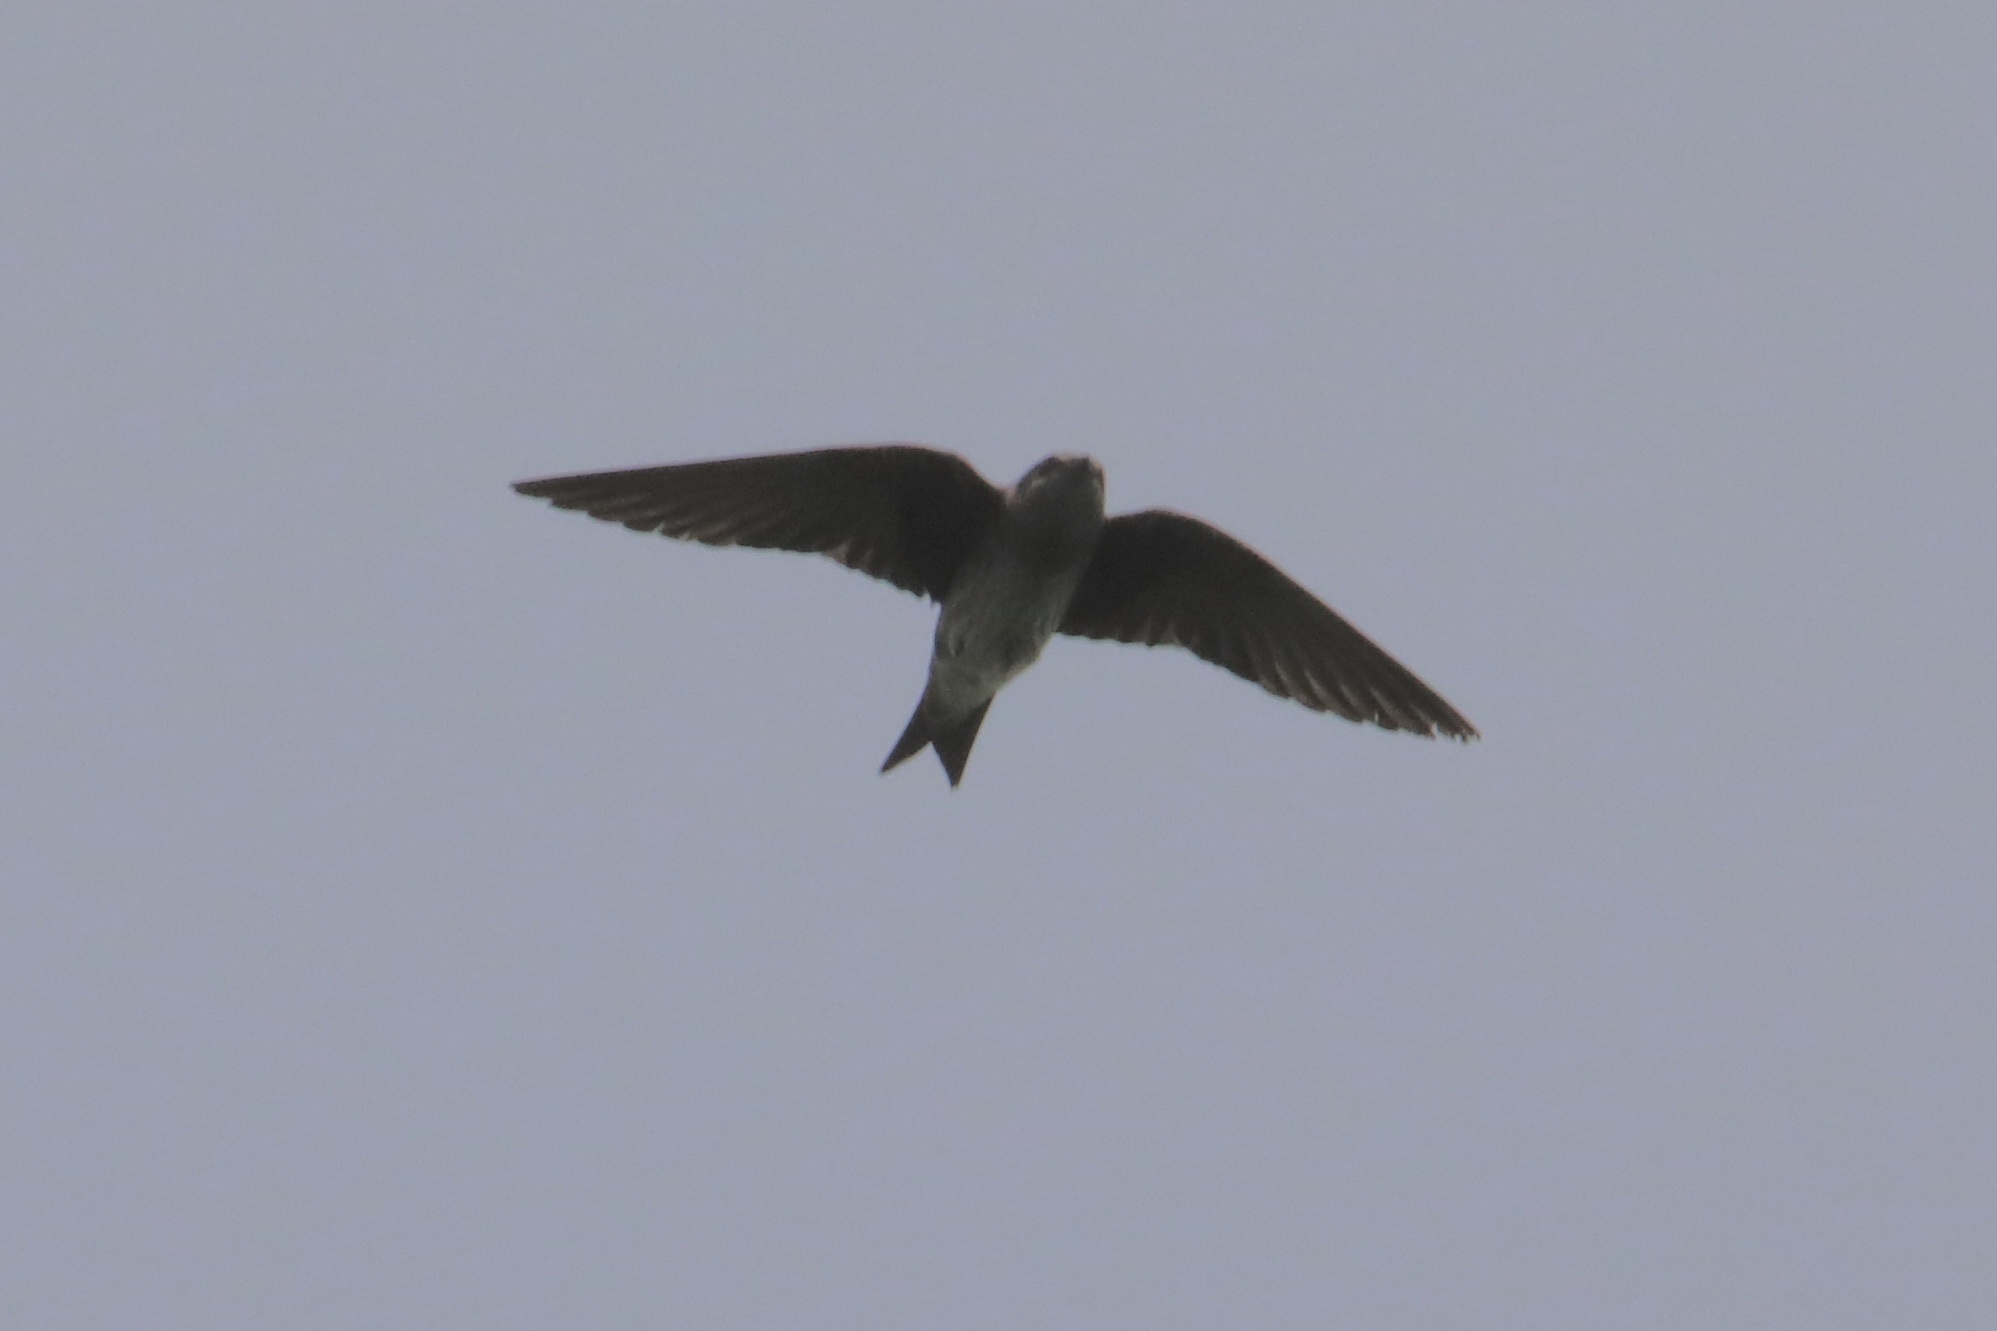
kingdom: Animalia
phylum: Chordata
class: Aves
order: Passeriformes
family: Hirundinidae
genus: Progne
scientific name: Progne chalybea
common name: Grey-breasted martin
